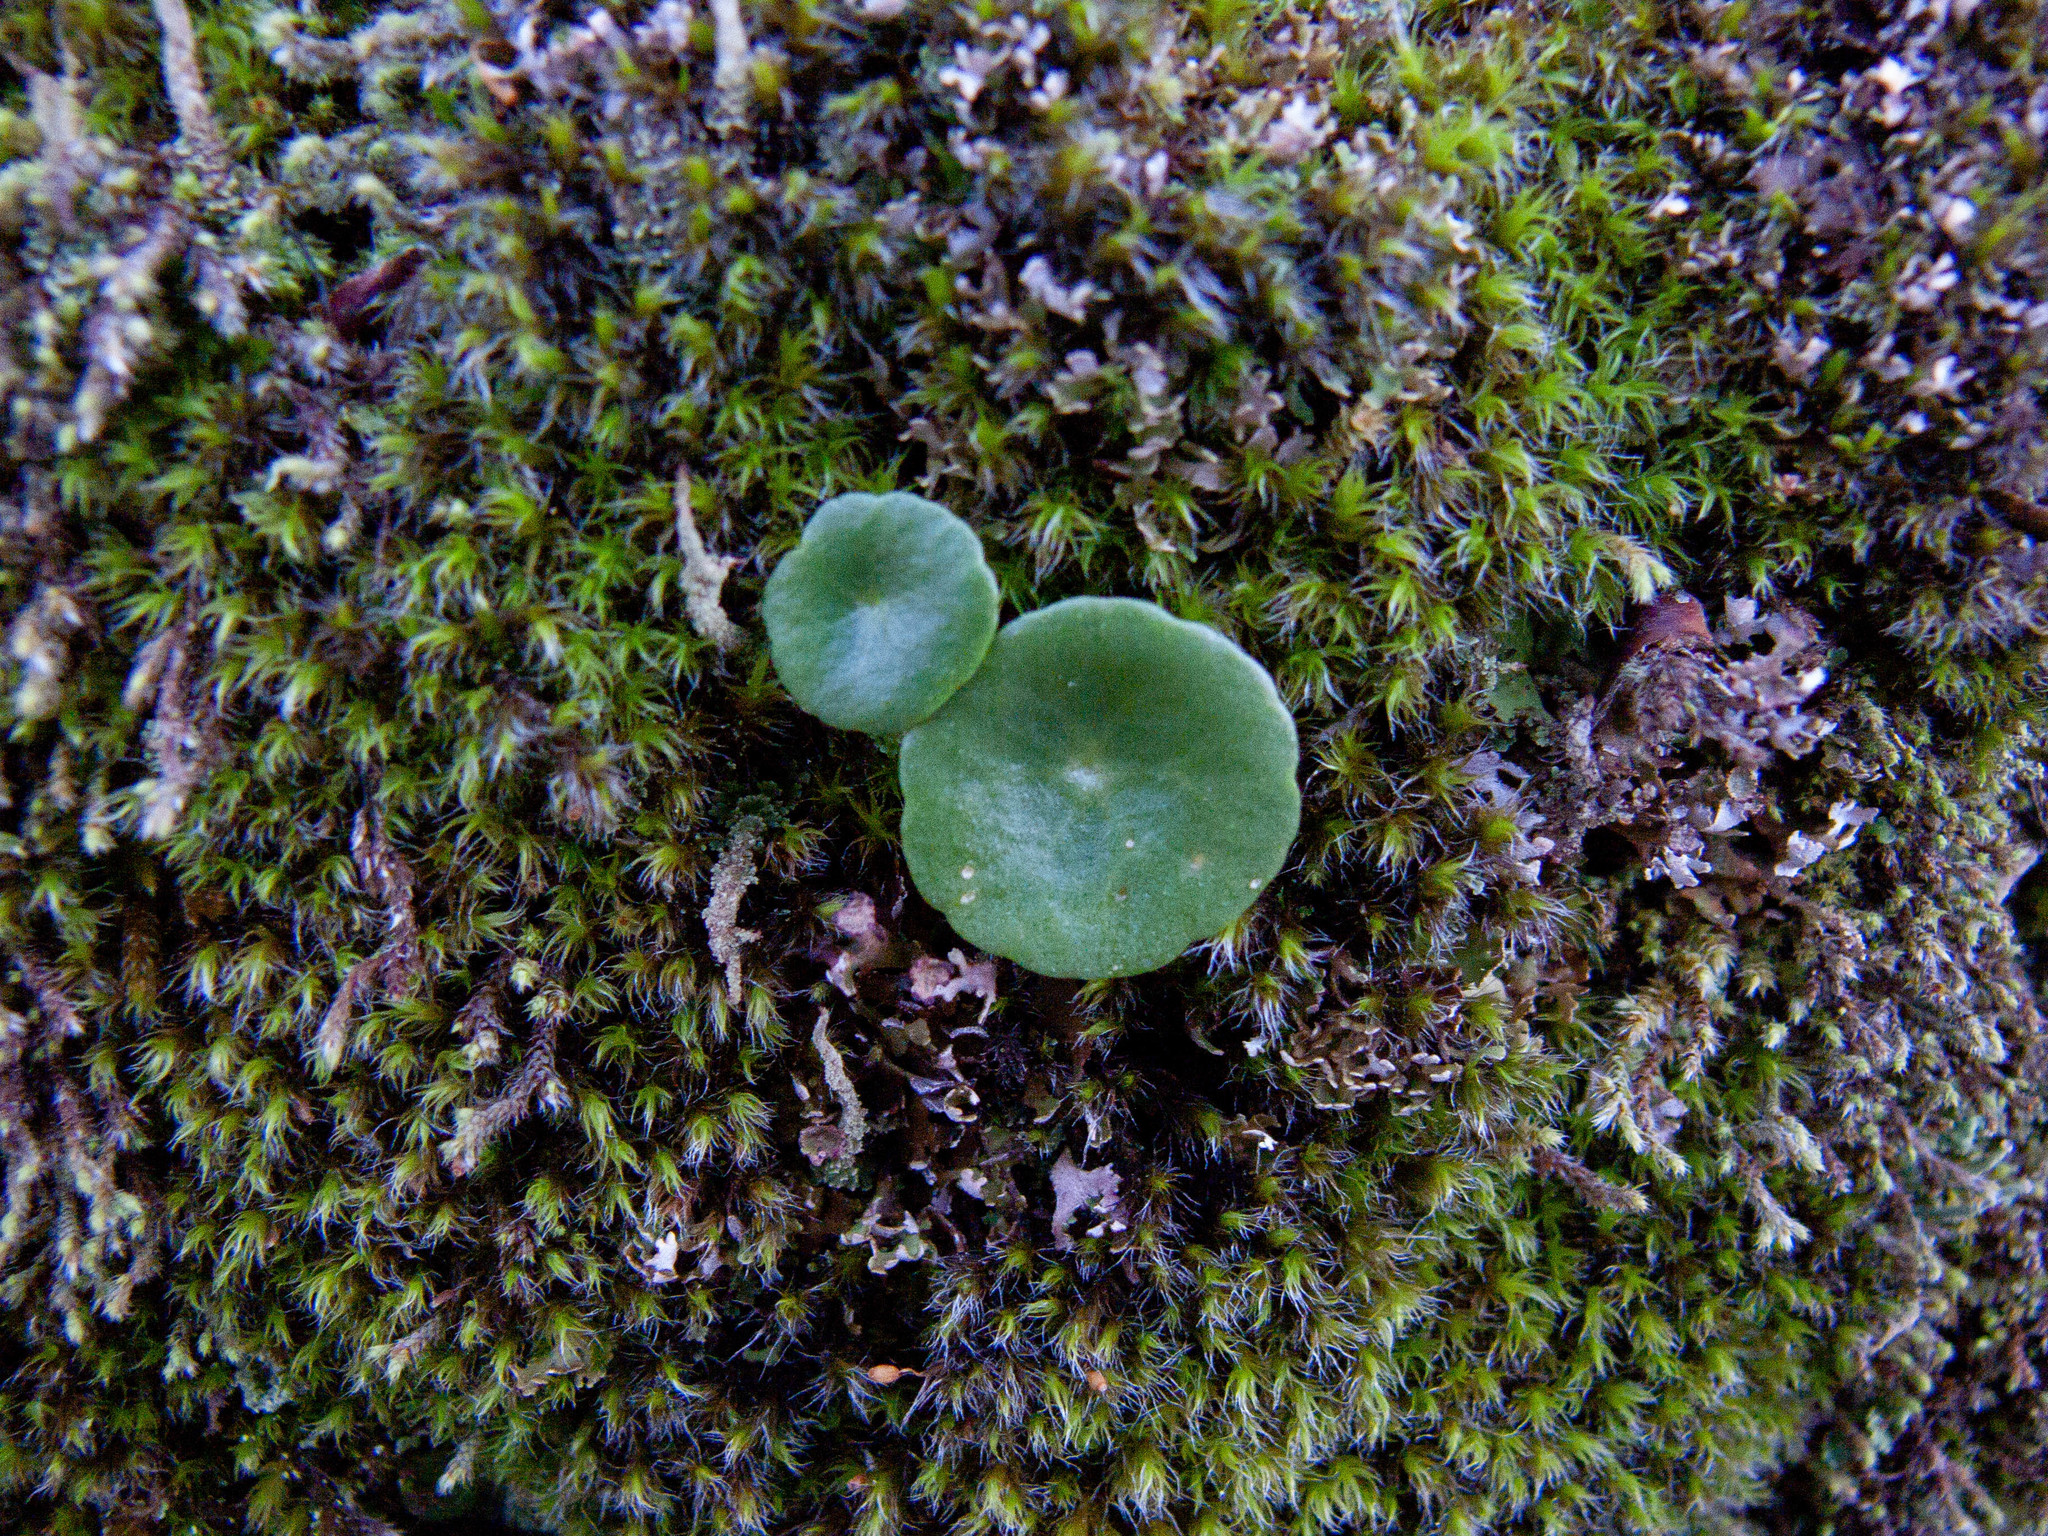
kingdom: Plantae
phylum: Tracheophyta
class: Magnoliopsida
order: Saxifragales
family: Crassulaceae
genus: Umbilicus
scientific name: Umbilicus rupestris
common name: Navelwort
